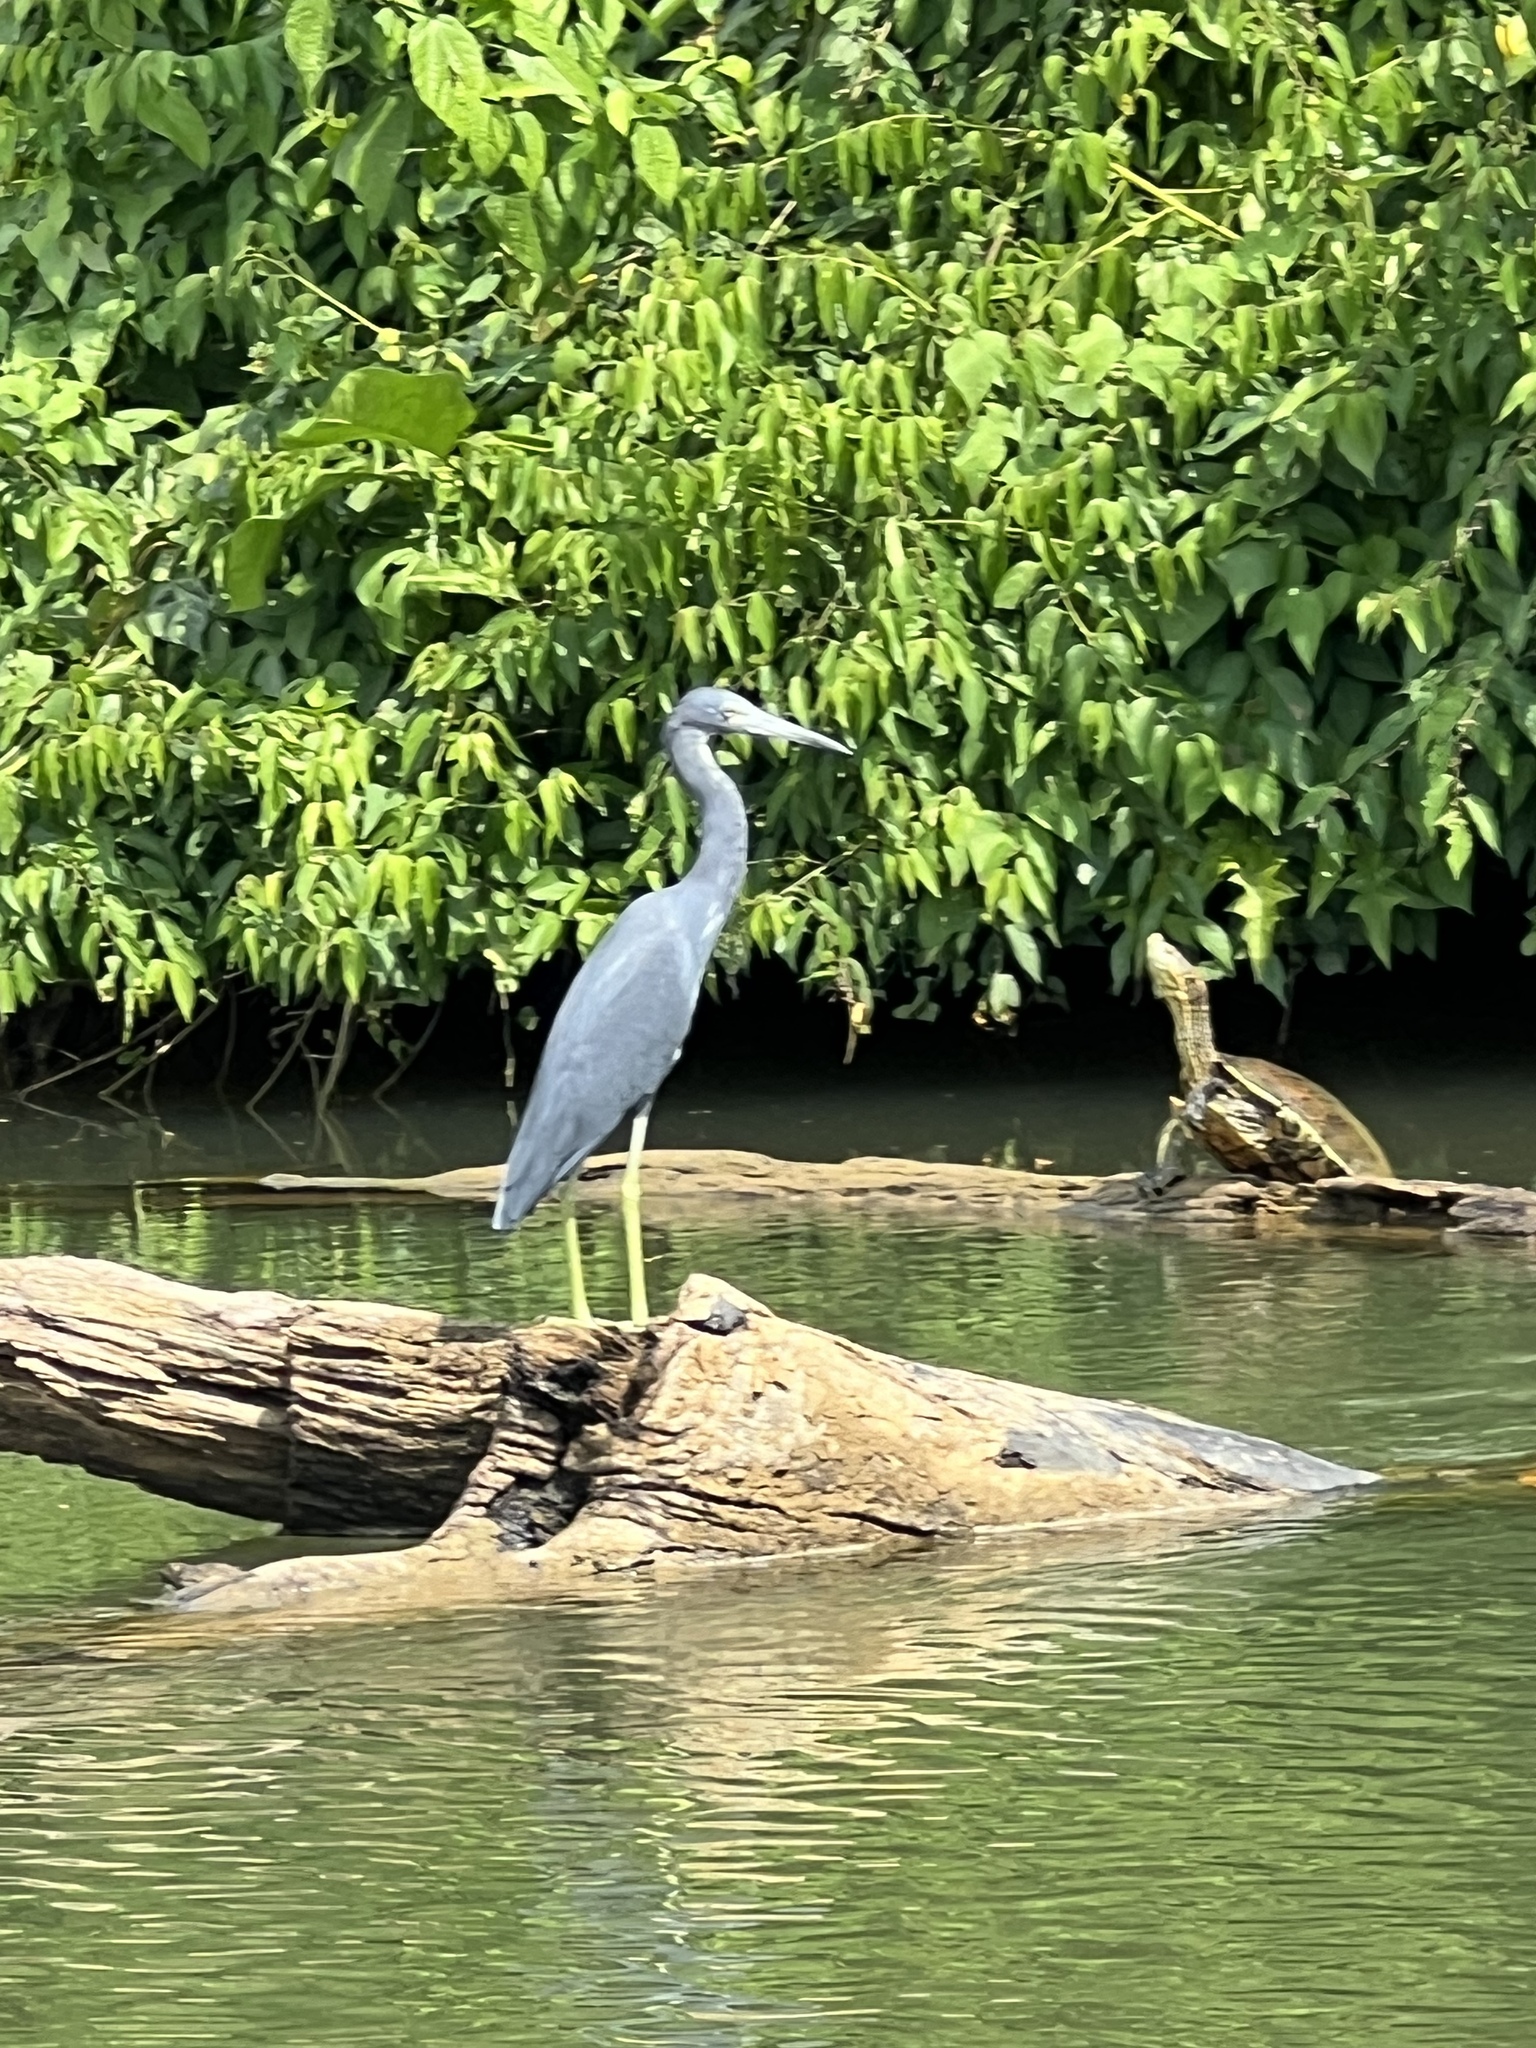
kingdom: Animalia
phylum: Chordata
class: Aves
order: Pelecaniformes
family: Ardeidae
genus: Egretta
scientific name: Egretta caerulea
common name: Little blue heron
